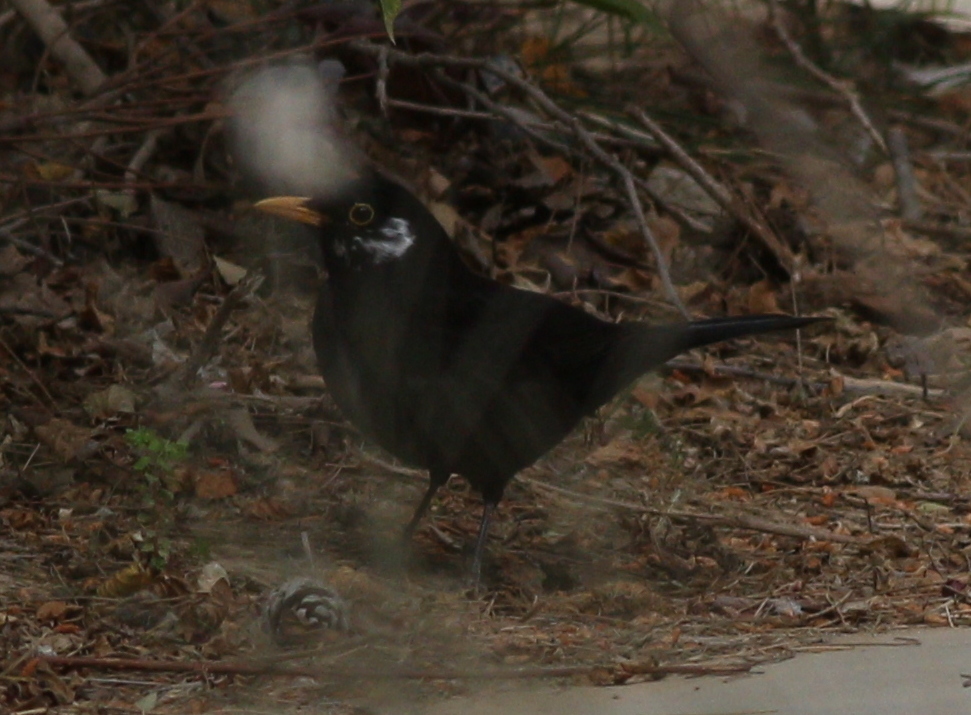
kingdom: Animalia
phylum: Chordata
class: Aves
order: Passeriformes
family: Turdidae
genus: Turdus
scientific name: Turdus merula
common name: Common blackbird
